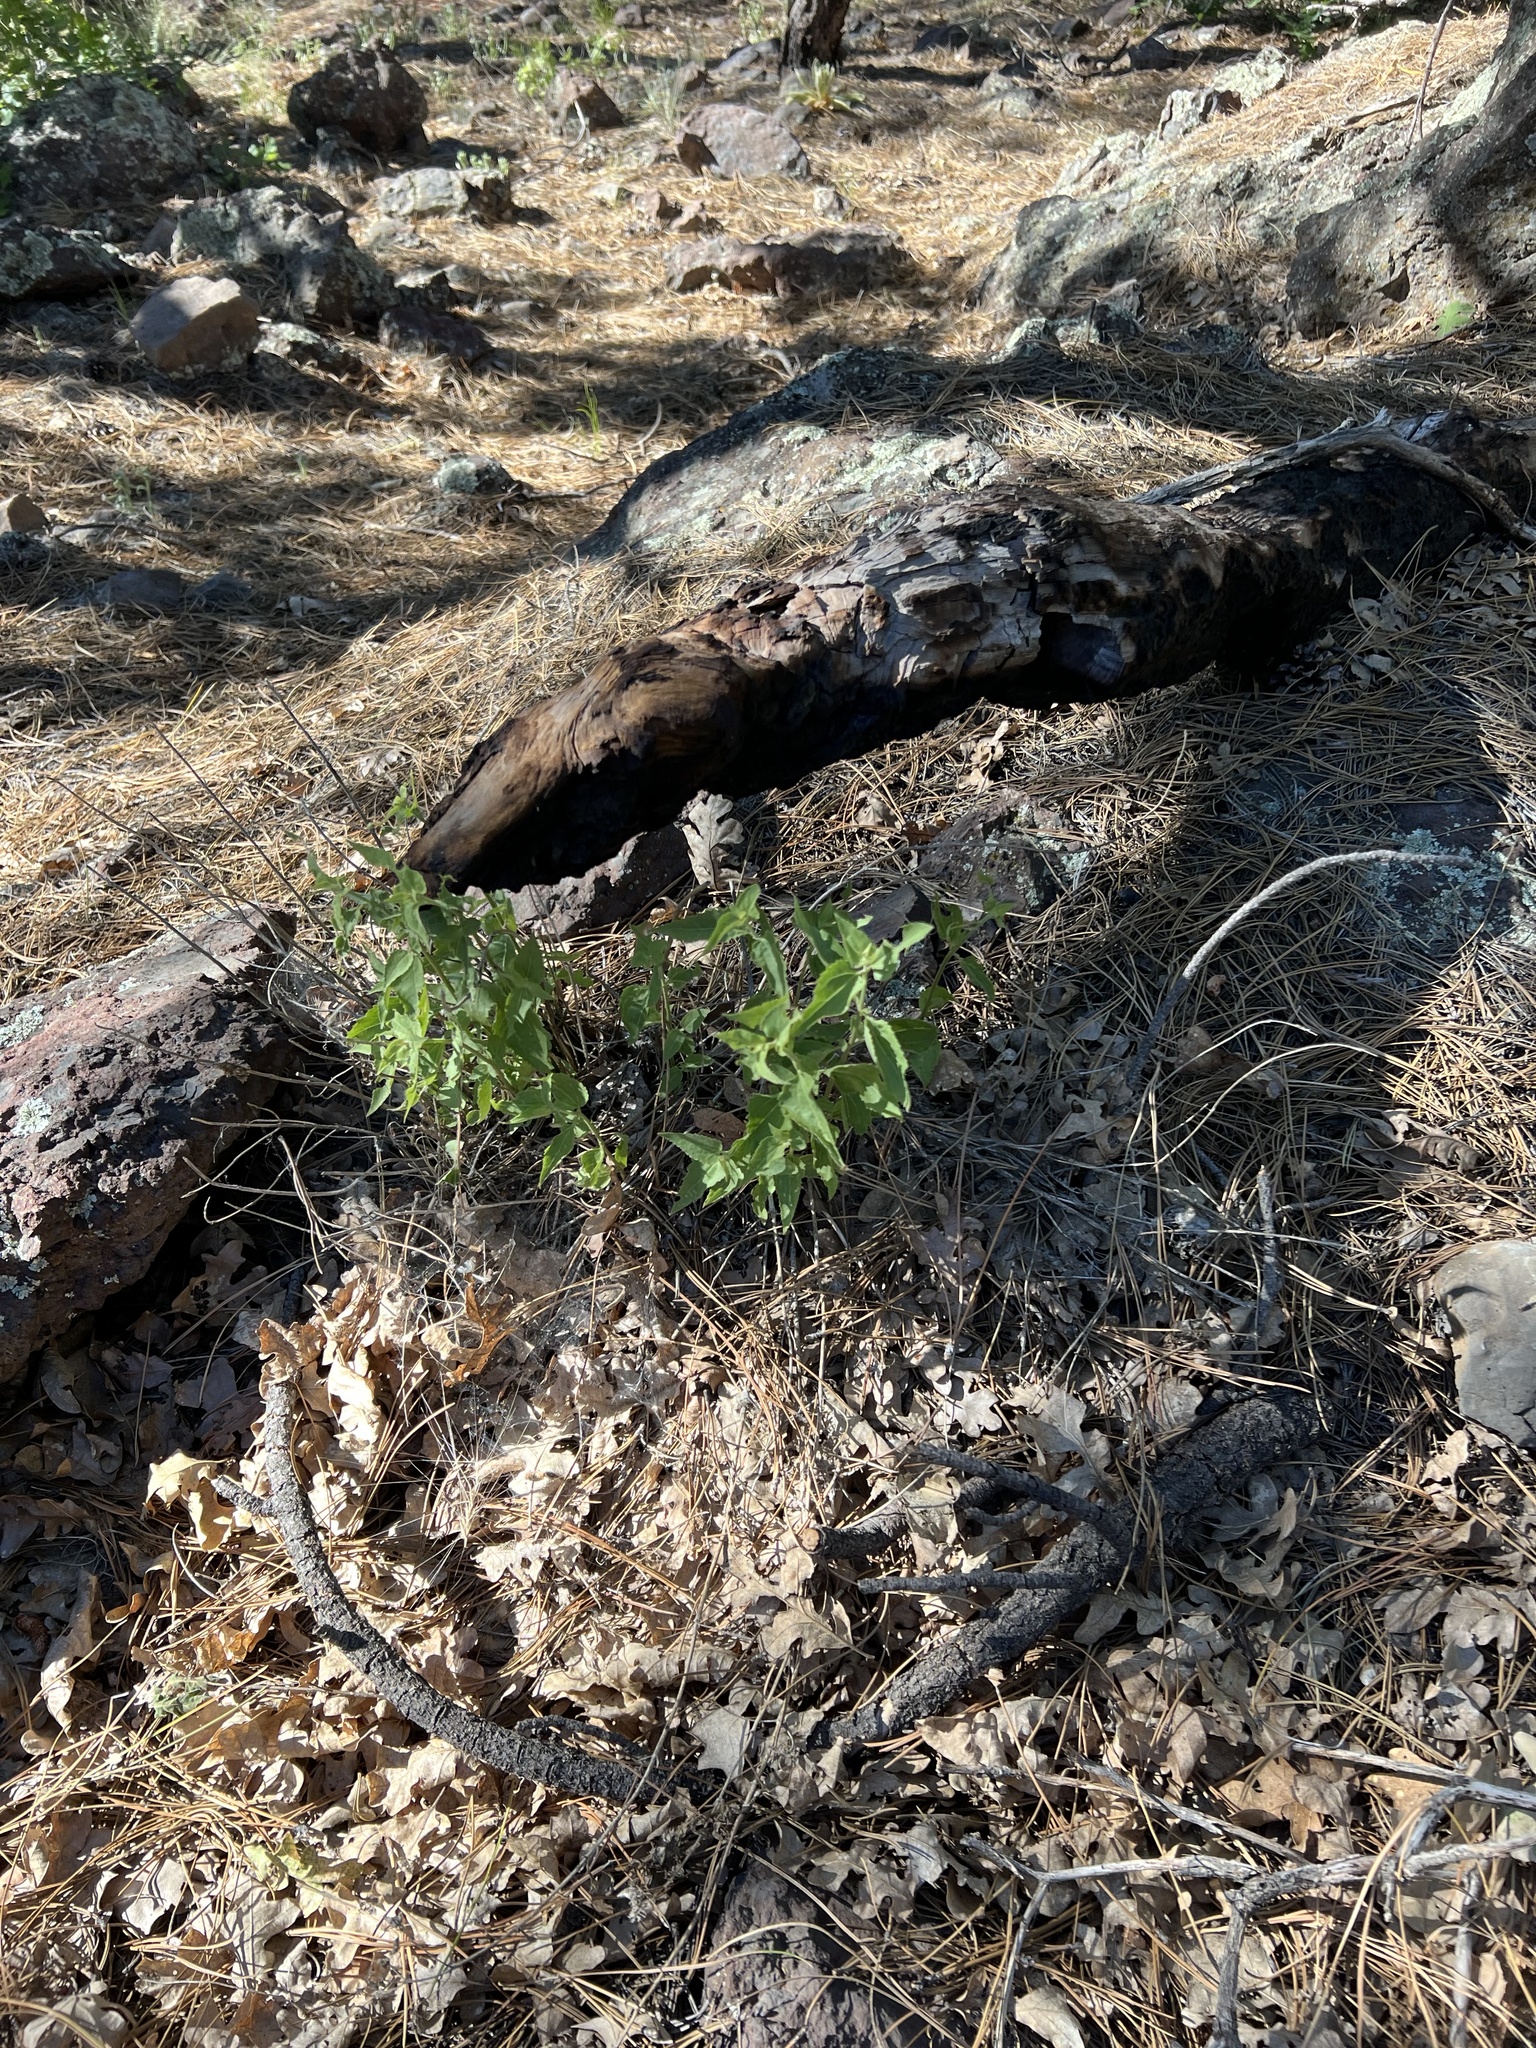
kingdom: Plantae
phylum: Tracheophyta
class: Magnoliopsida
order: Asterales
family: Asteraceae
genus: Ageratina
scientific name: Ageratina herbacea
